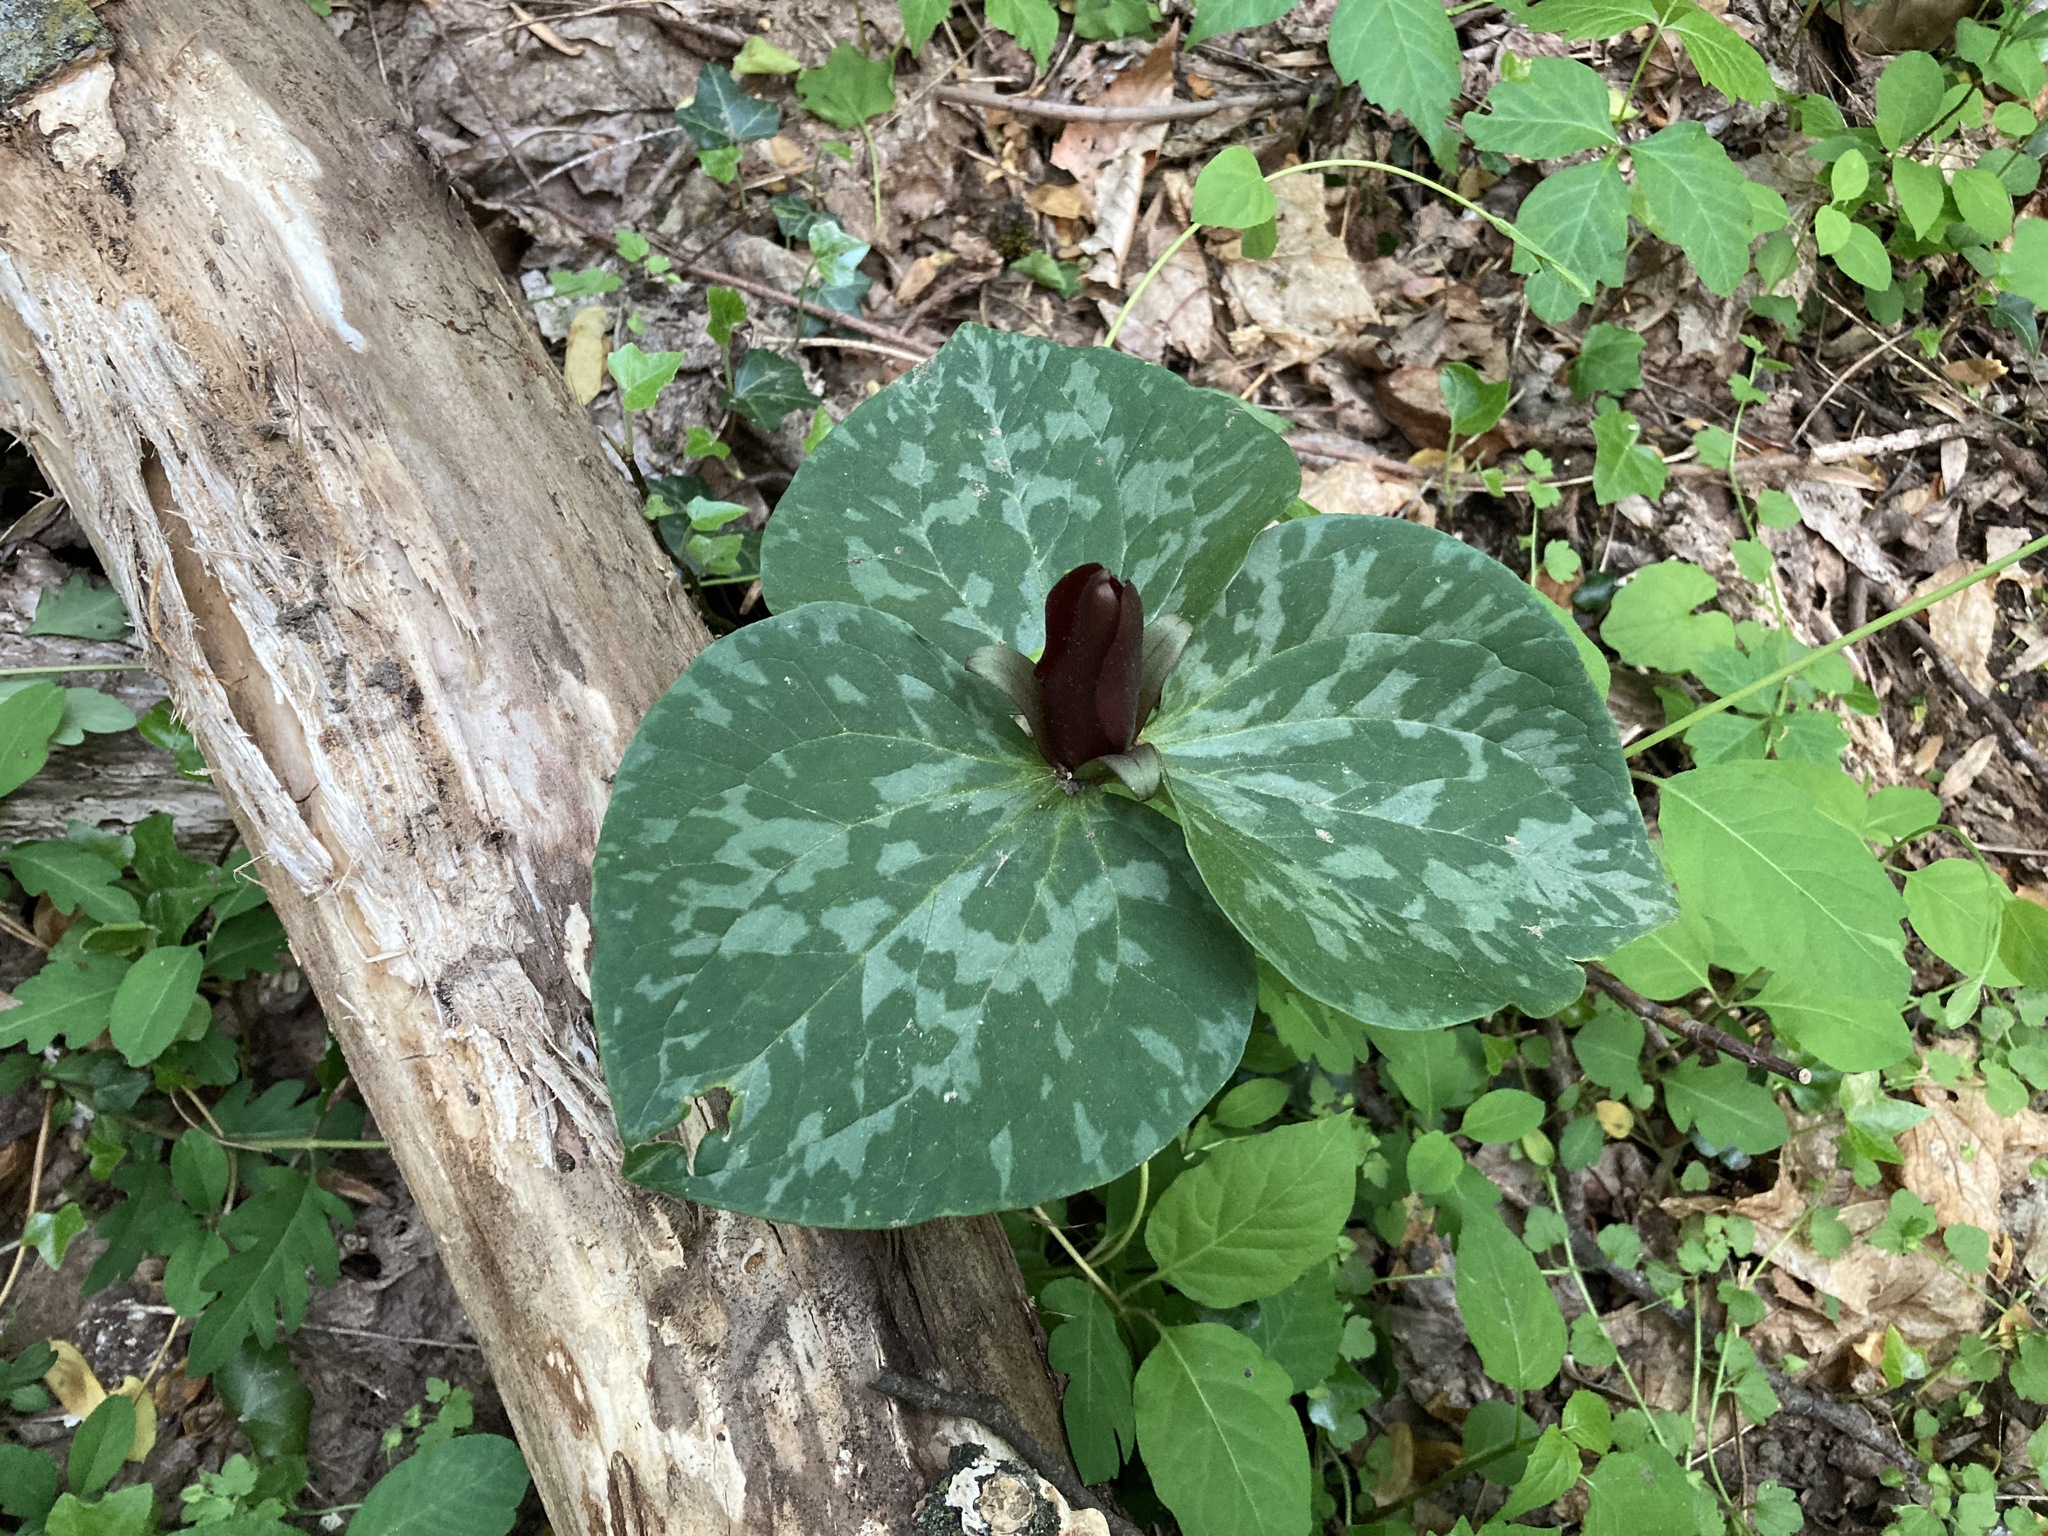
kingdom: Plantae
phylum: Tracheophyta
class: Liliopsida
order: Liliales
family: Melanthiaceae
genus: Trillium
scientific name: Trillium cuneatum
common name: Cuneate trillium
